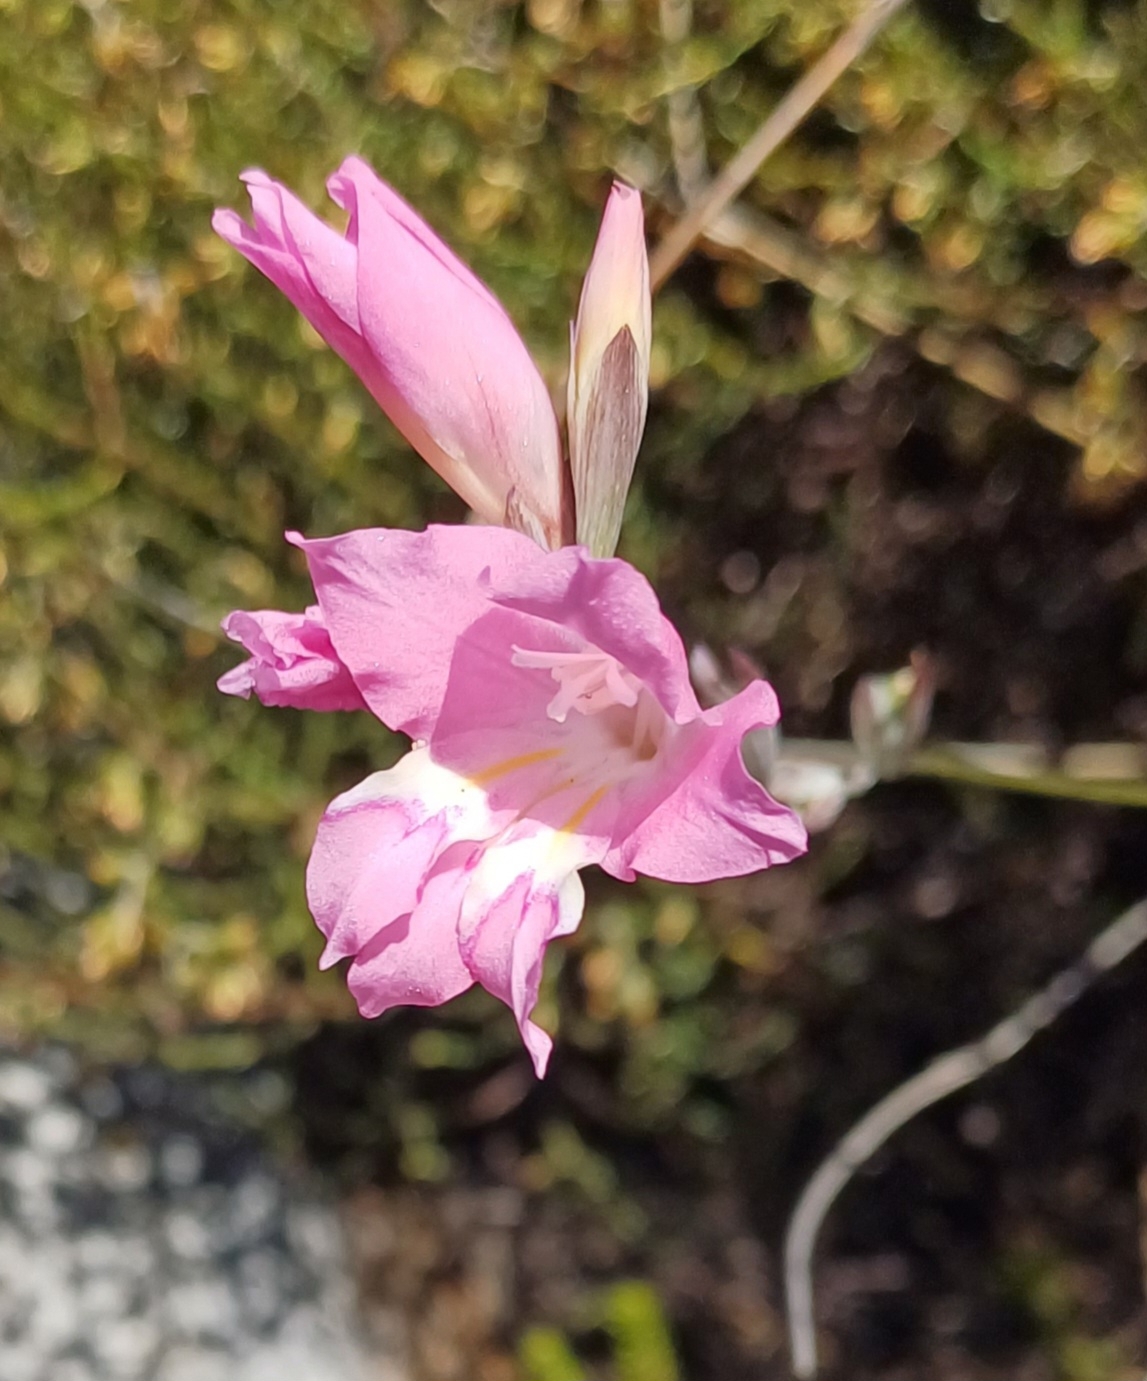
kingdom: Plantae
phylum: Tracheophyta
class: Liliopsida
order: Asparagales
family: Iridaceae
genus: Gladiolus
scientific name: Gladiolus brevifolius
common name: March pypie
